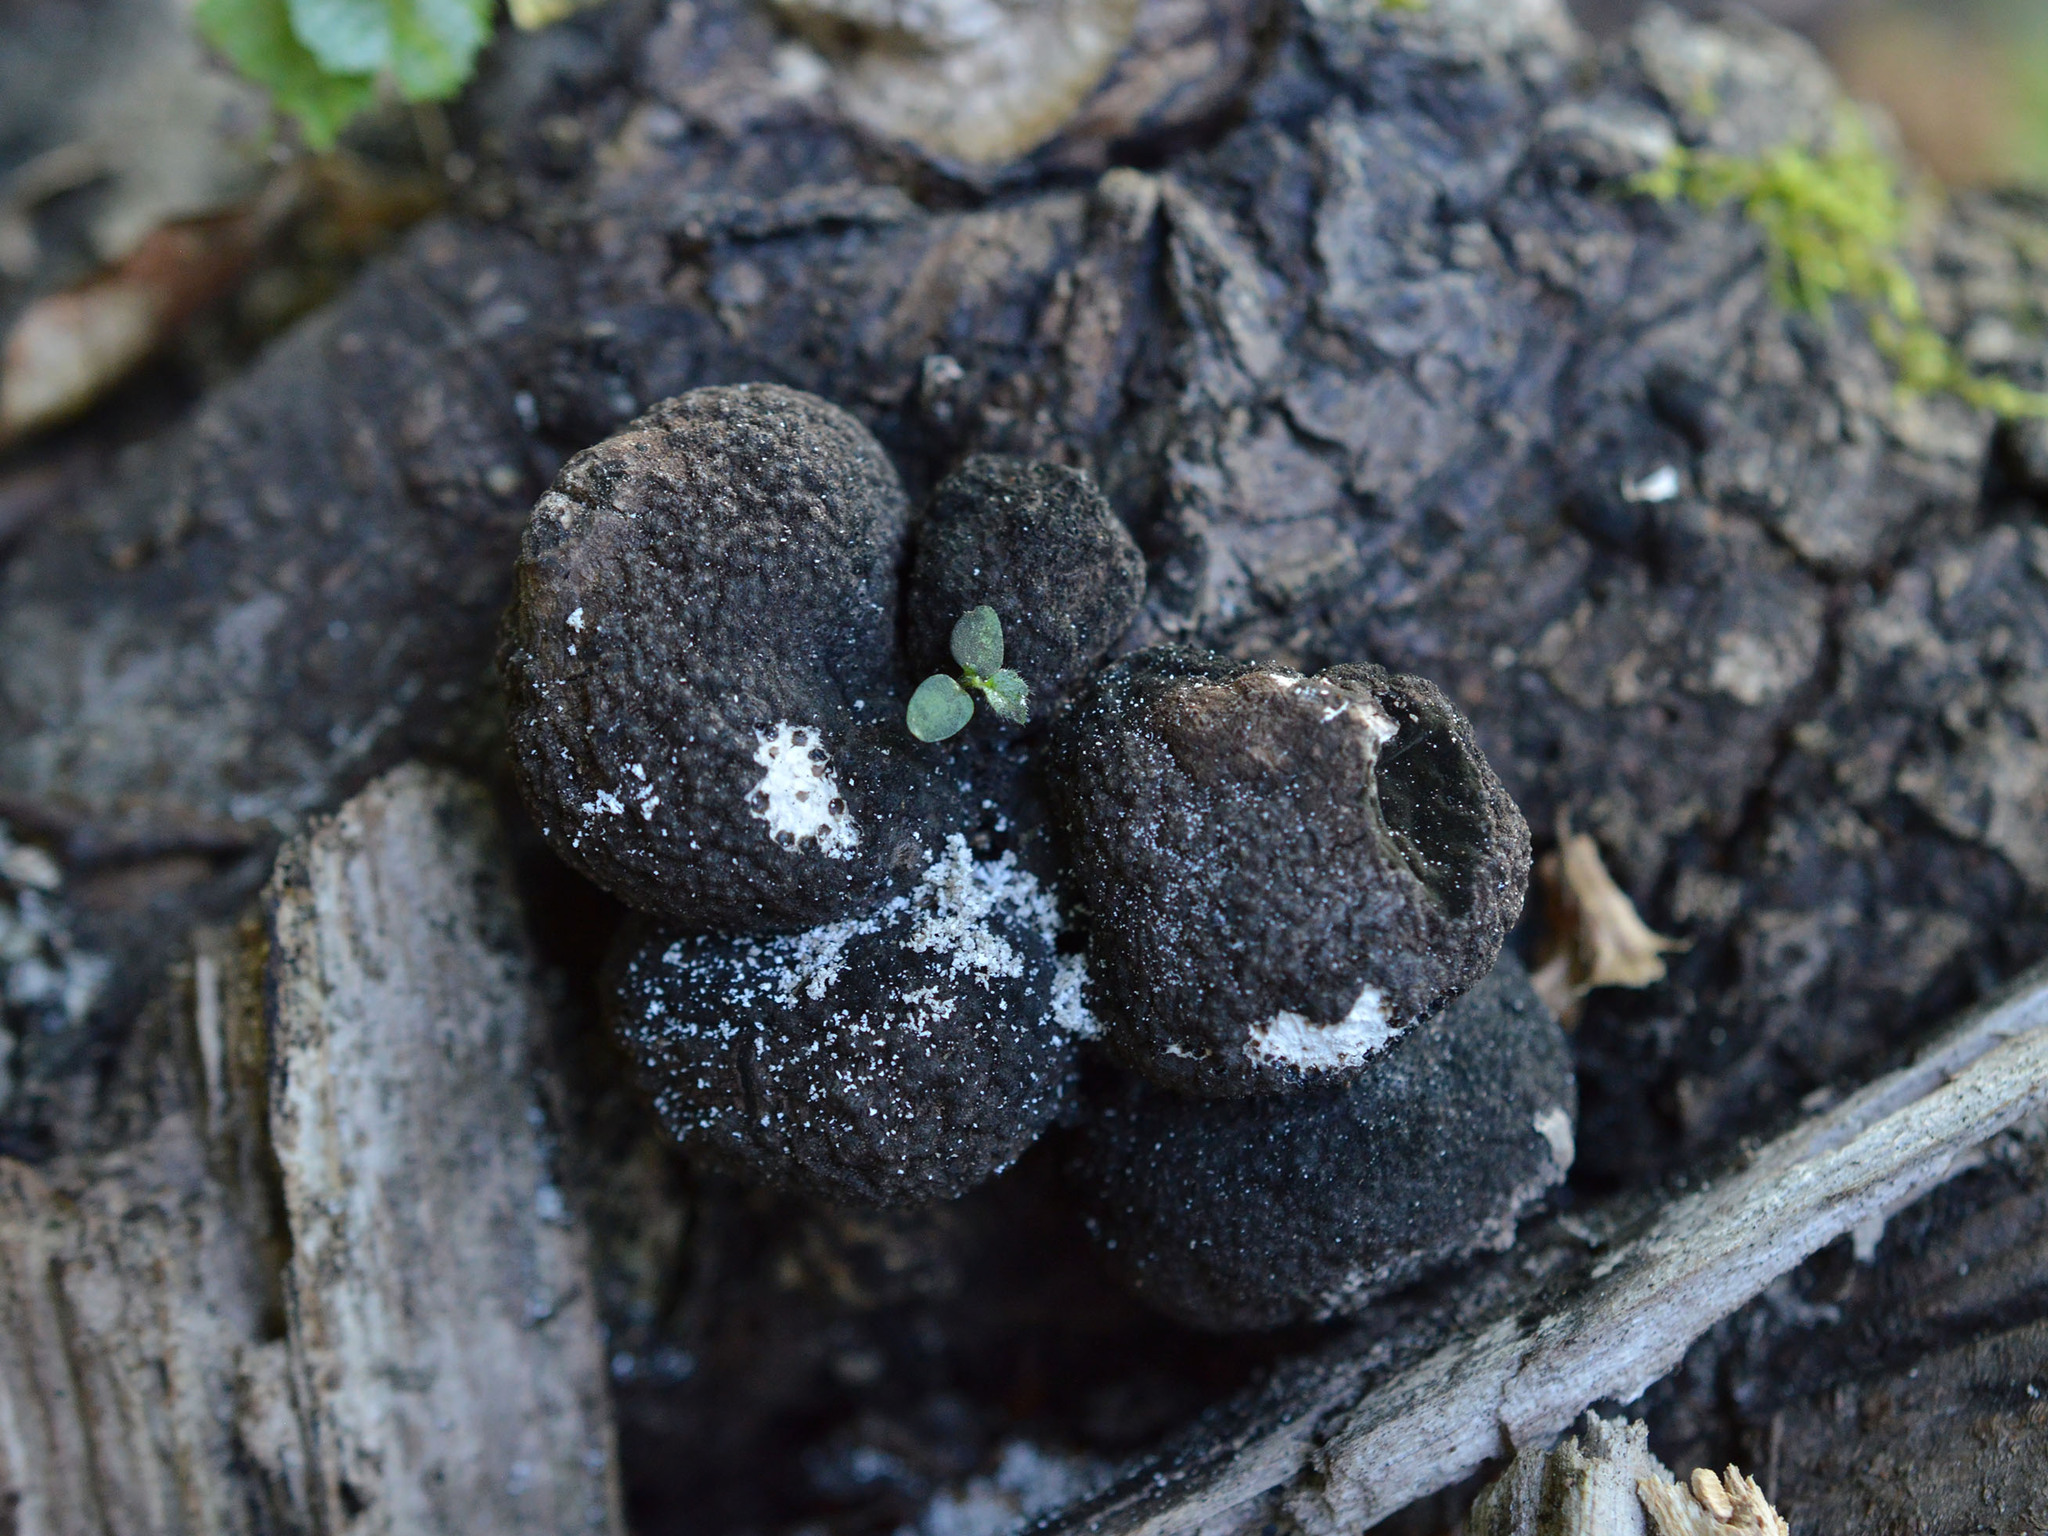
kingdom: Fungi
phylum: Ascomycota
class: Sordariomycetes
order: Xylariales
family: Xylariaceae
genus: Xylaria
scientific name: Xylaria polymorpha
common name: Dead man's fingers
